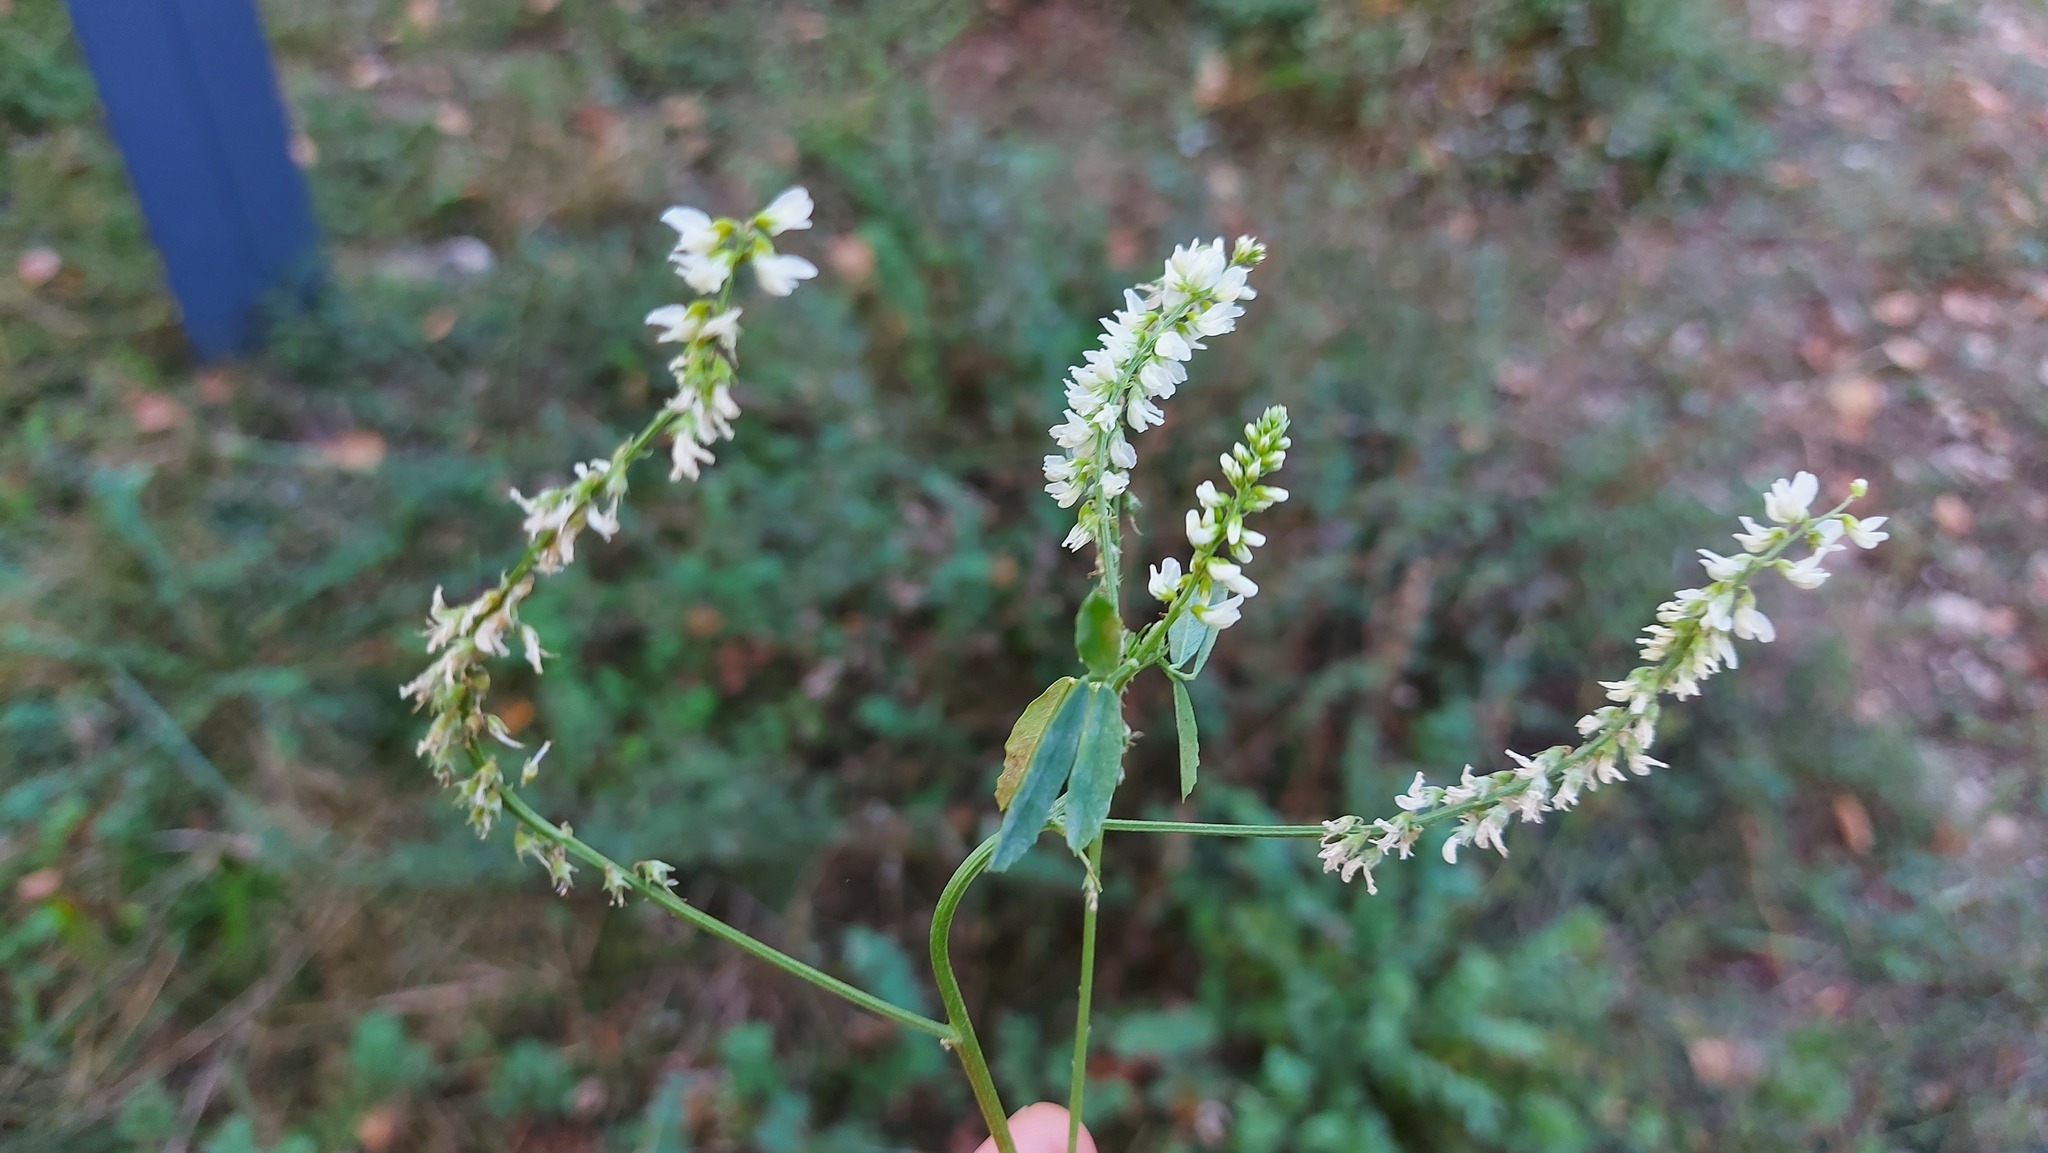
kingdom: Plantae
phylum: Tracheophyta
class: Magnoliopsida
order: Fabales
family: Fabaceae
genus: Melilotus
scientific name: Melilotus albus
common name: White melilot
